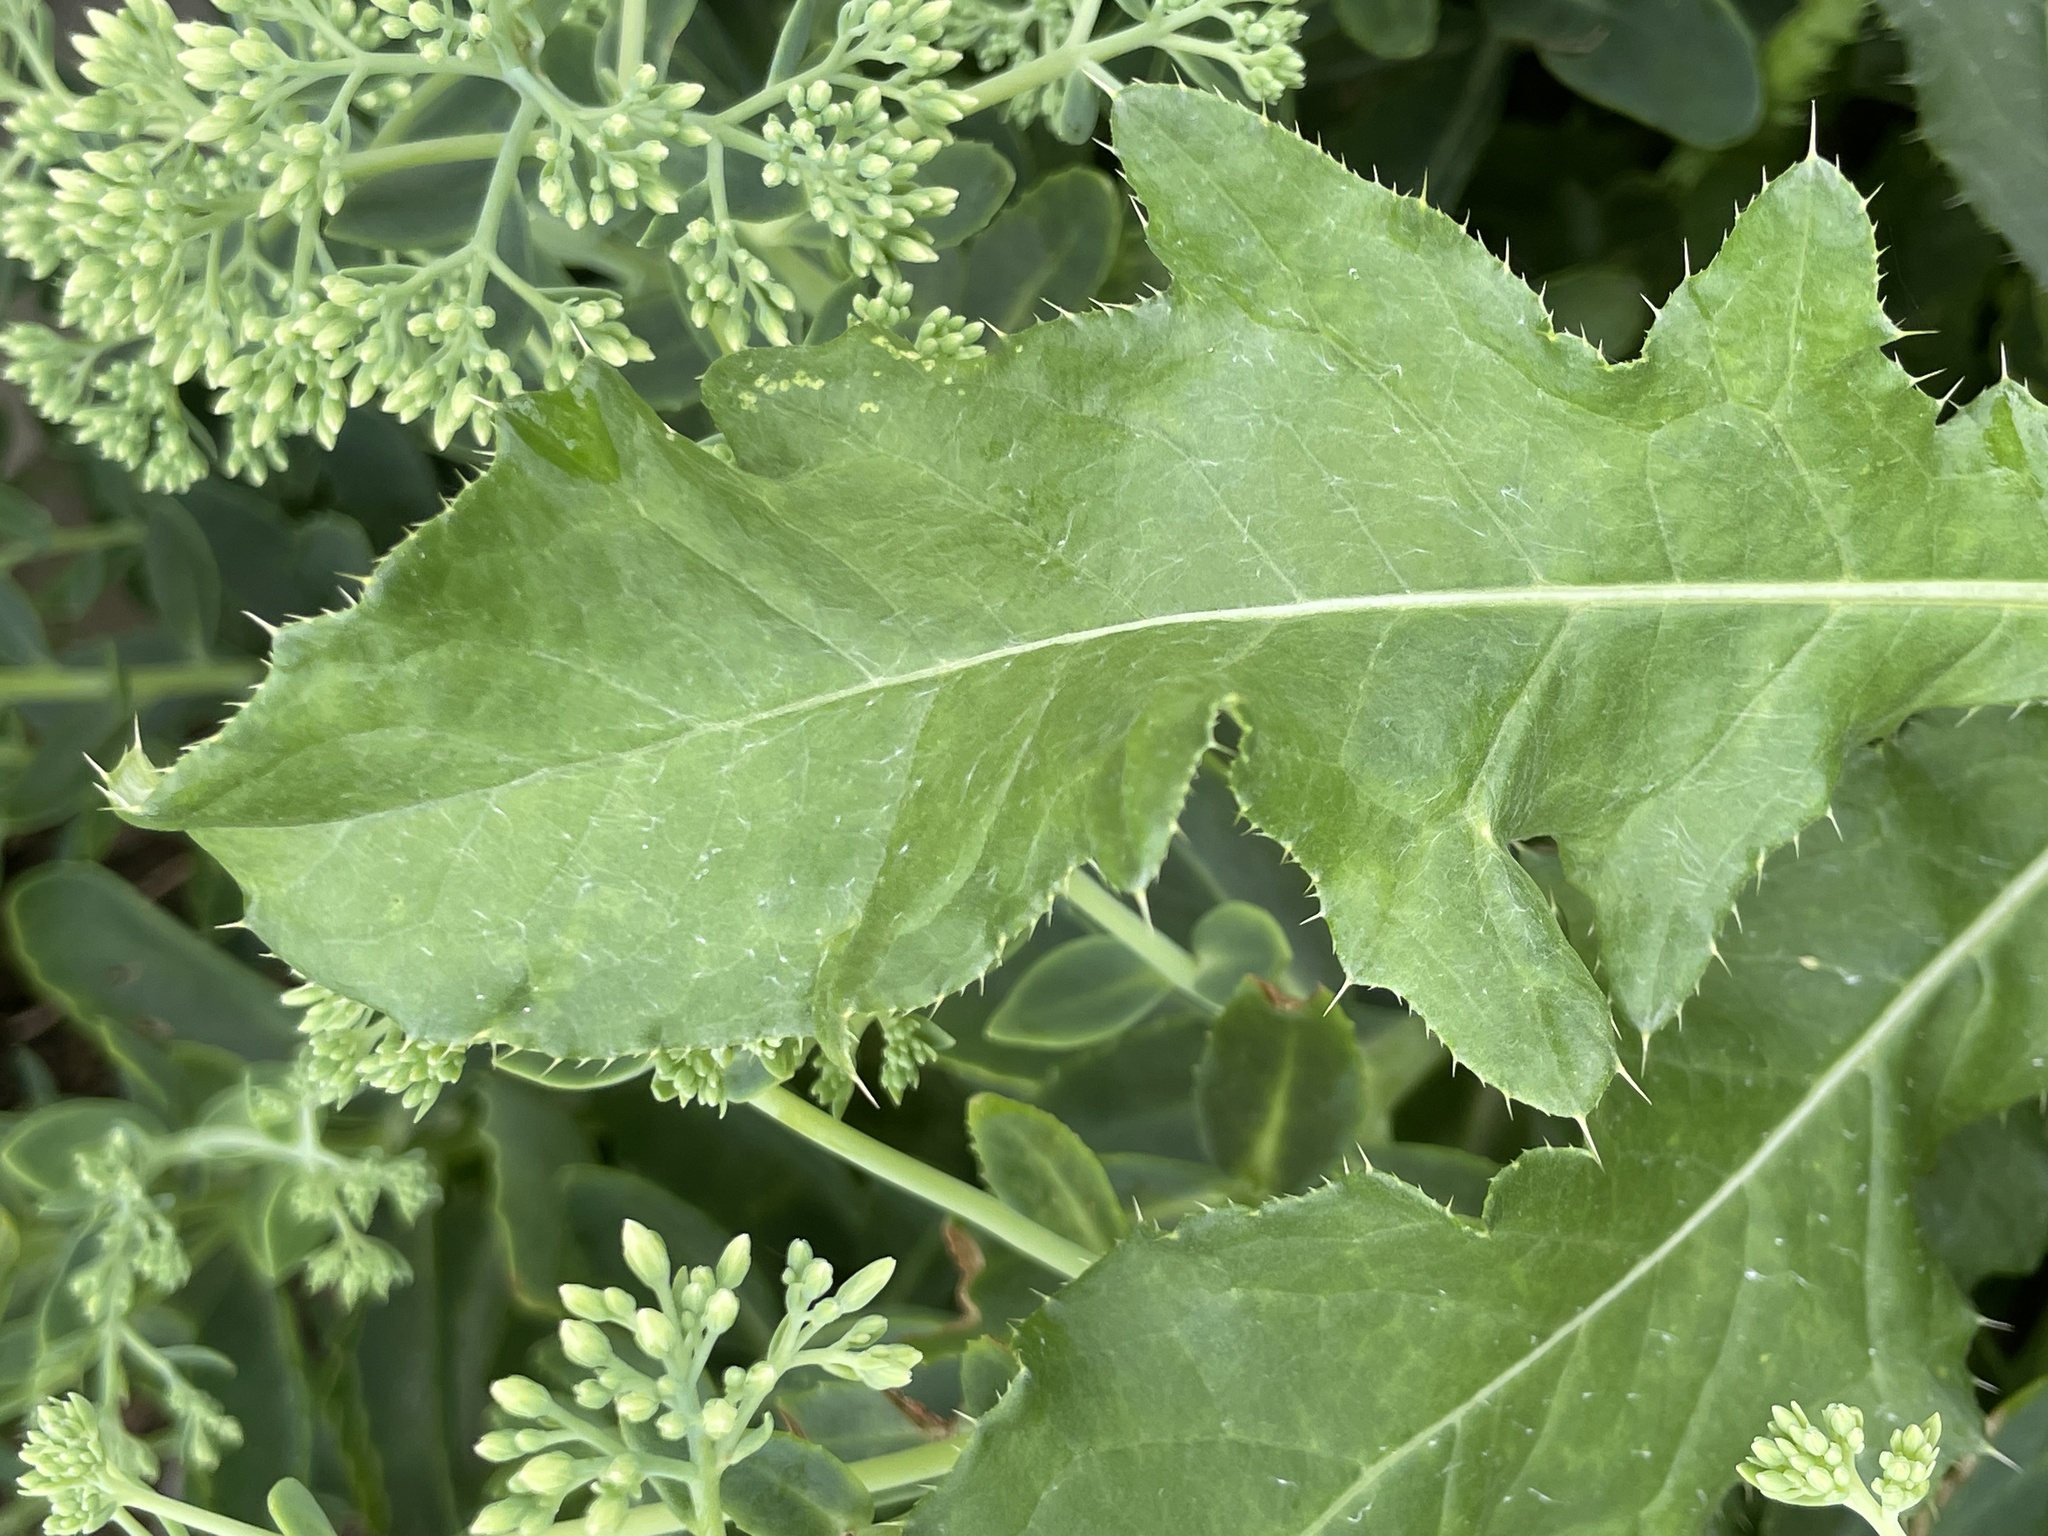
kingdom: Plantae
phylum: Tracheophyta
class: Magnoliopsida
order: Asterales
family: Asteraceae
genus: Cirsium
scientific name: Cirsium arvense
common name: Creeping thistle
